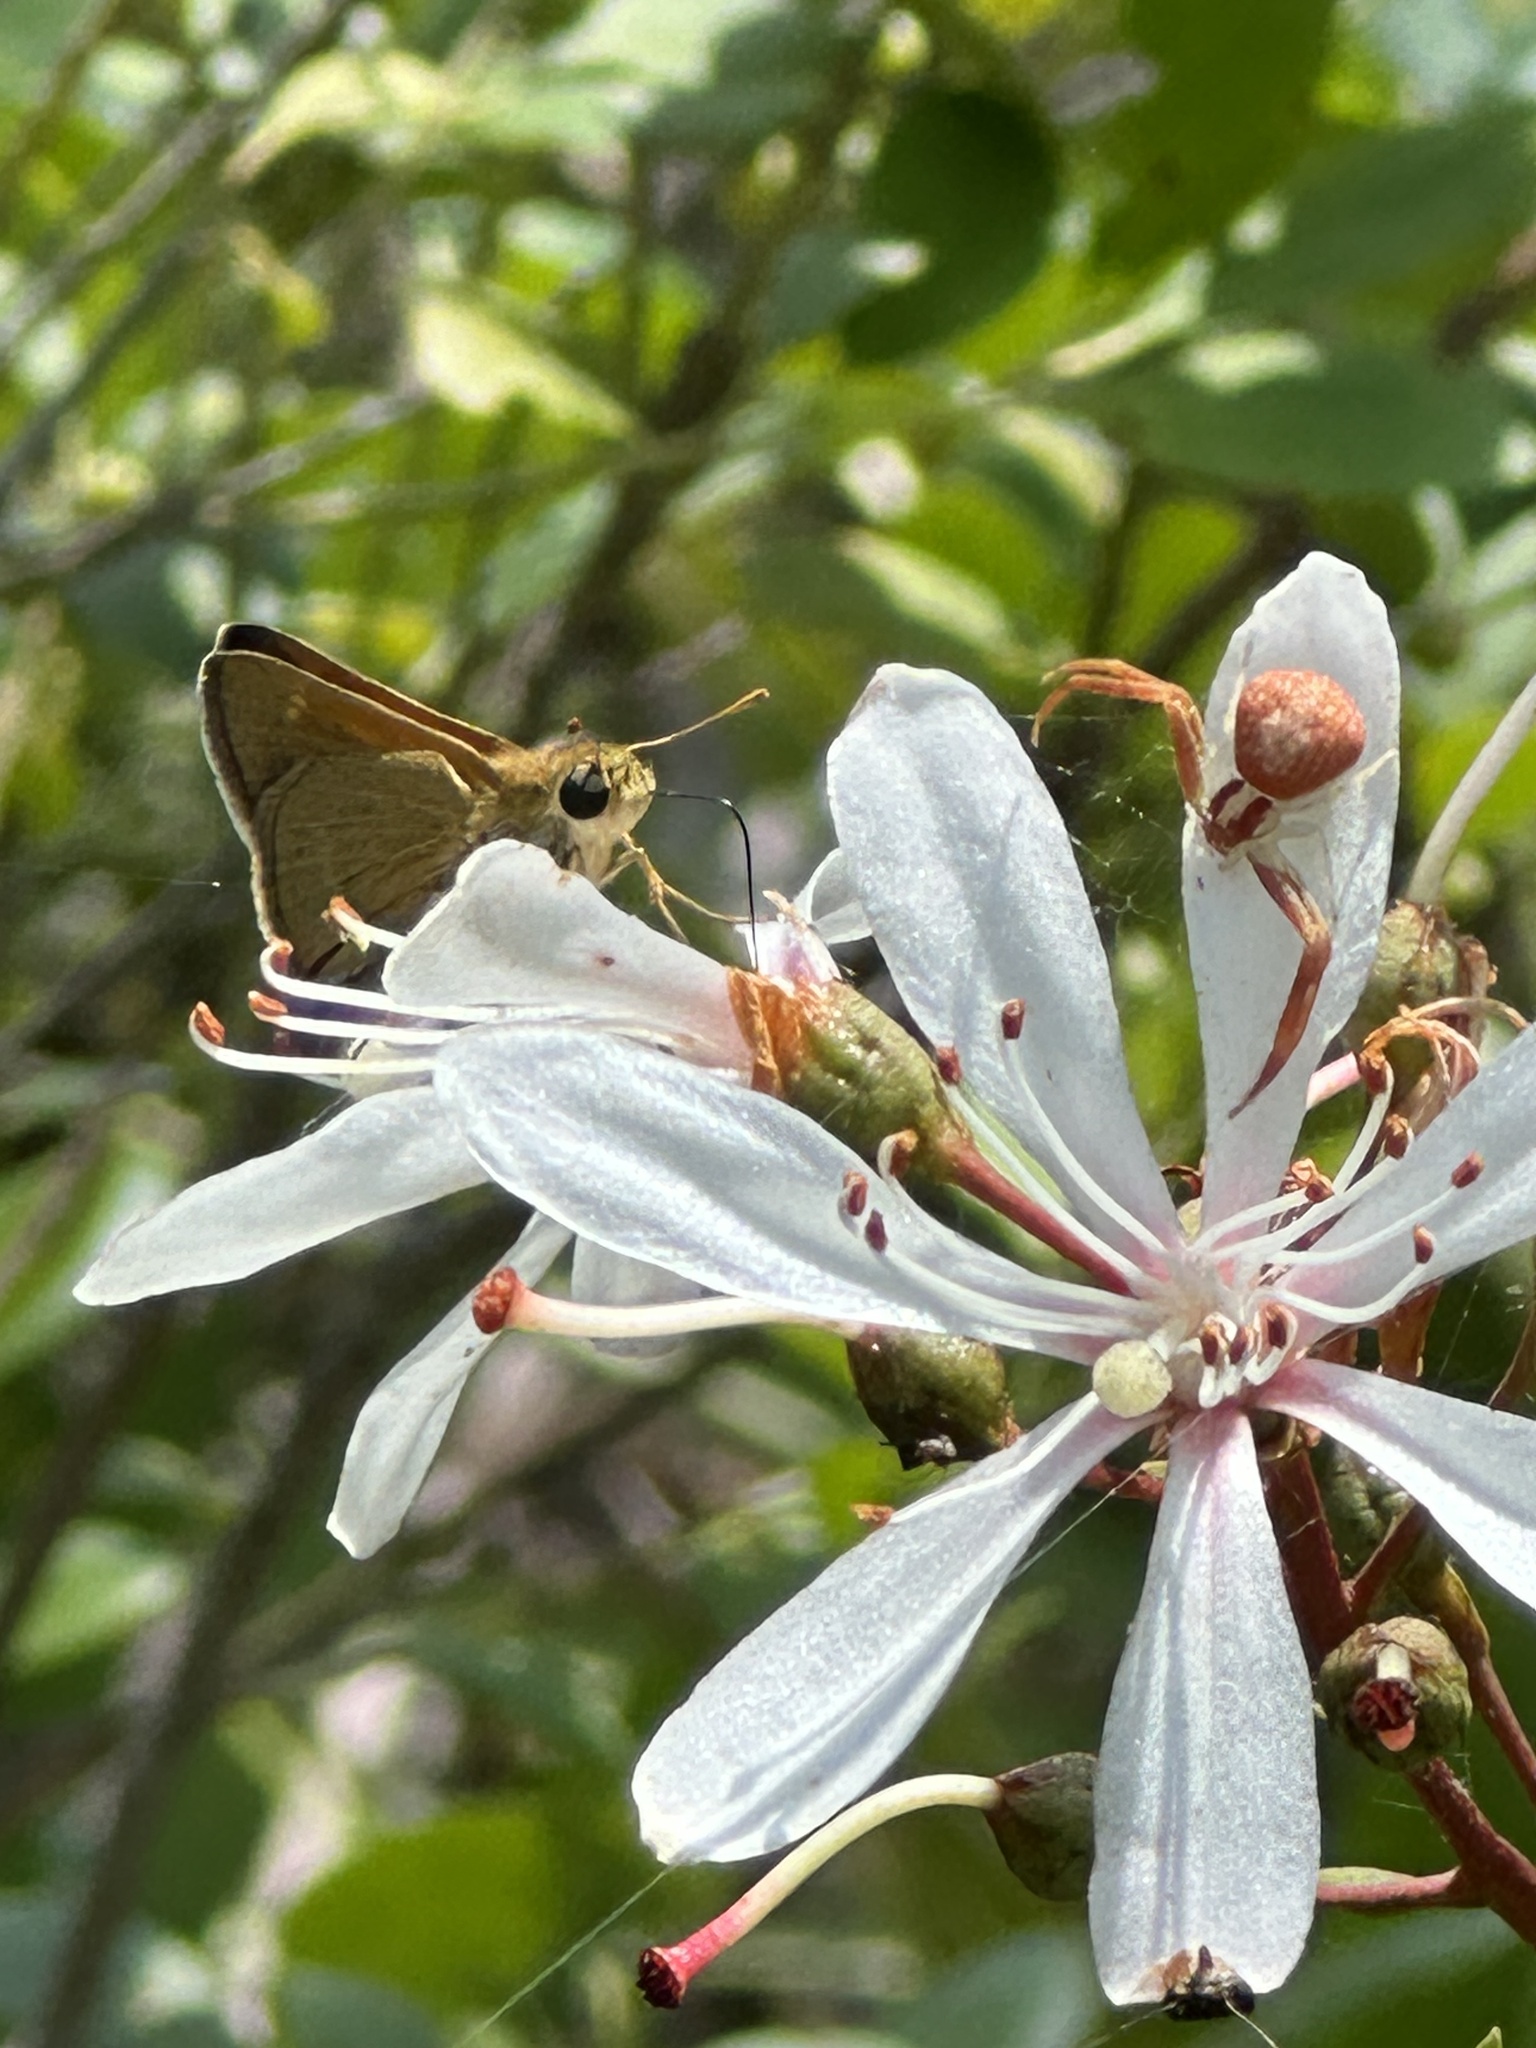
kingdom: Animalia
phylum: Arthropoda
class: Insecta
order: Lepidoptera
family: Hesperiidae
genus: Polites
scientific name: Polites themistocles
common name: Tawny-edged skipper
